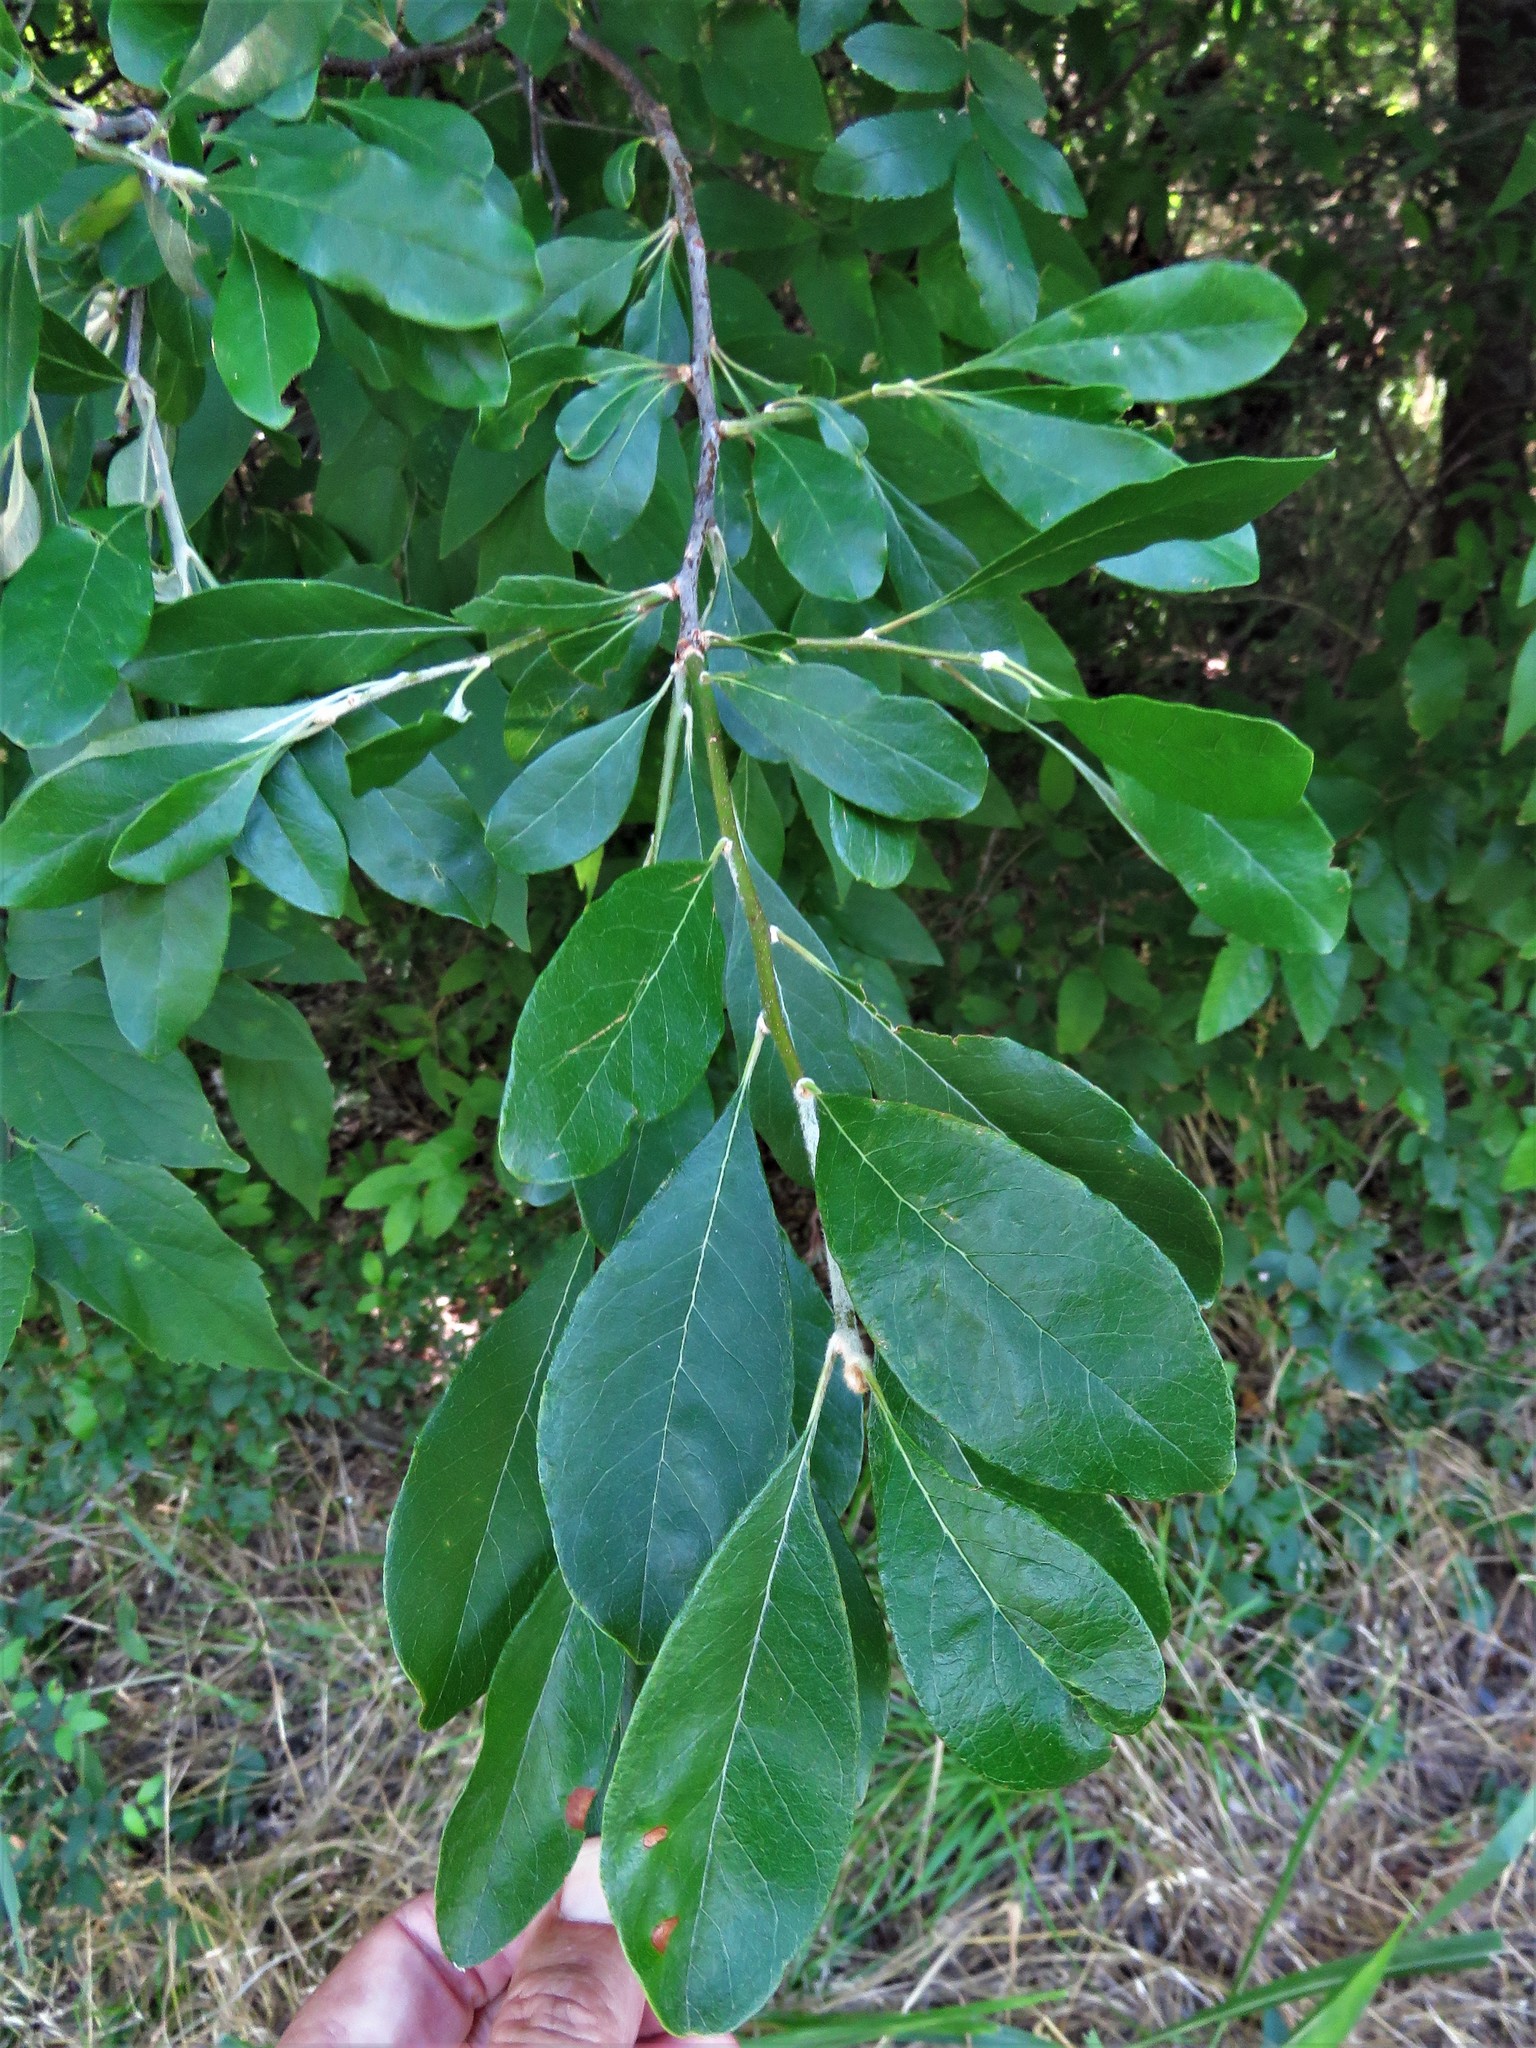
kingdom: Plantae
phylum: Tracheophyta
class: Magnoliopsida
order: Ericales
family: Sapotaceae
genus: Sideroxylon
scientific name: Sideroxylon lanuginosum
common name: Chittamwood
